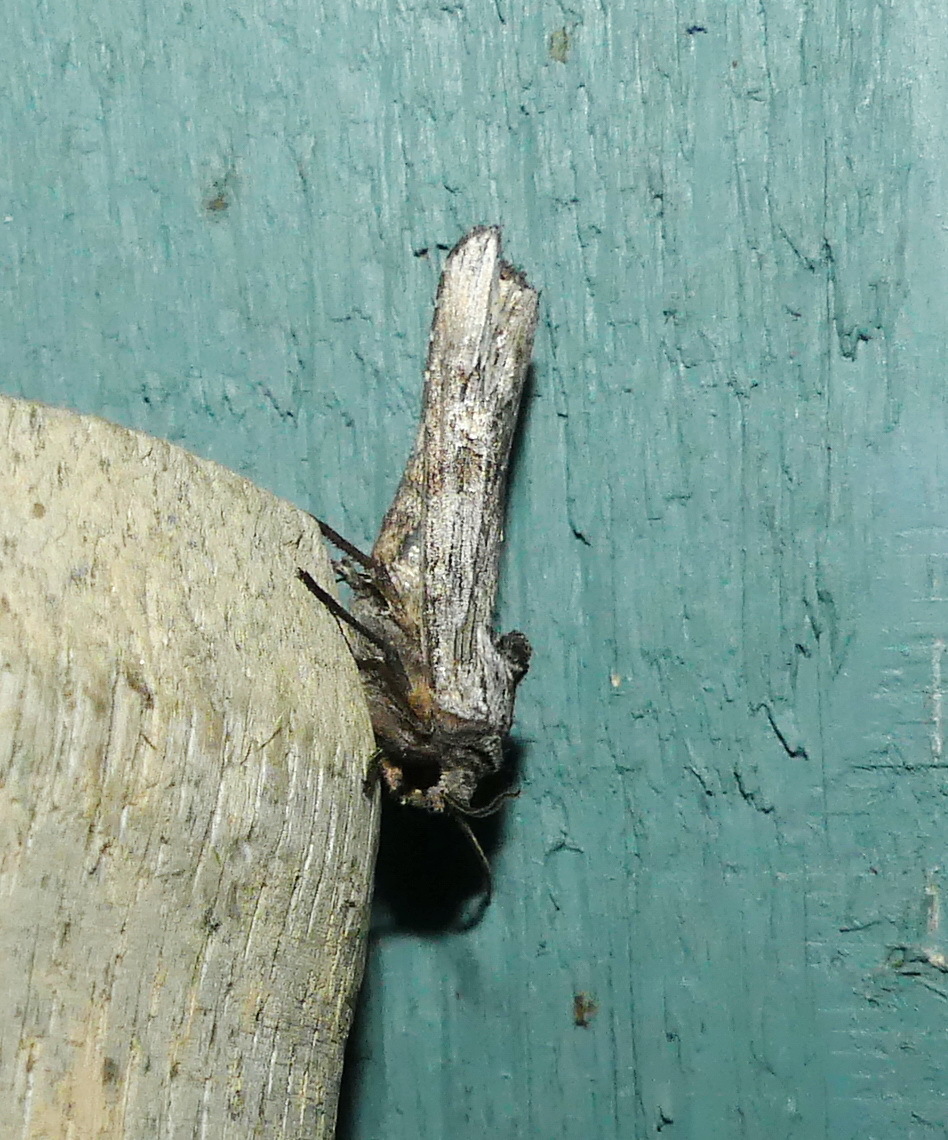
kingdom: Animalia
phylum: Arthropoda
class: Insecta
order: Lepidoptera
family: Noctuidae
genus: Xylena
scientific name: Xylena germana
